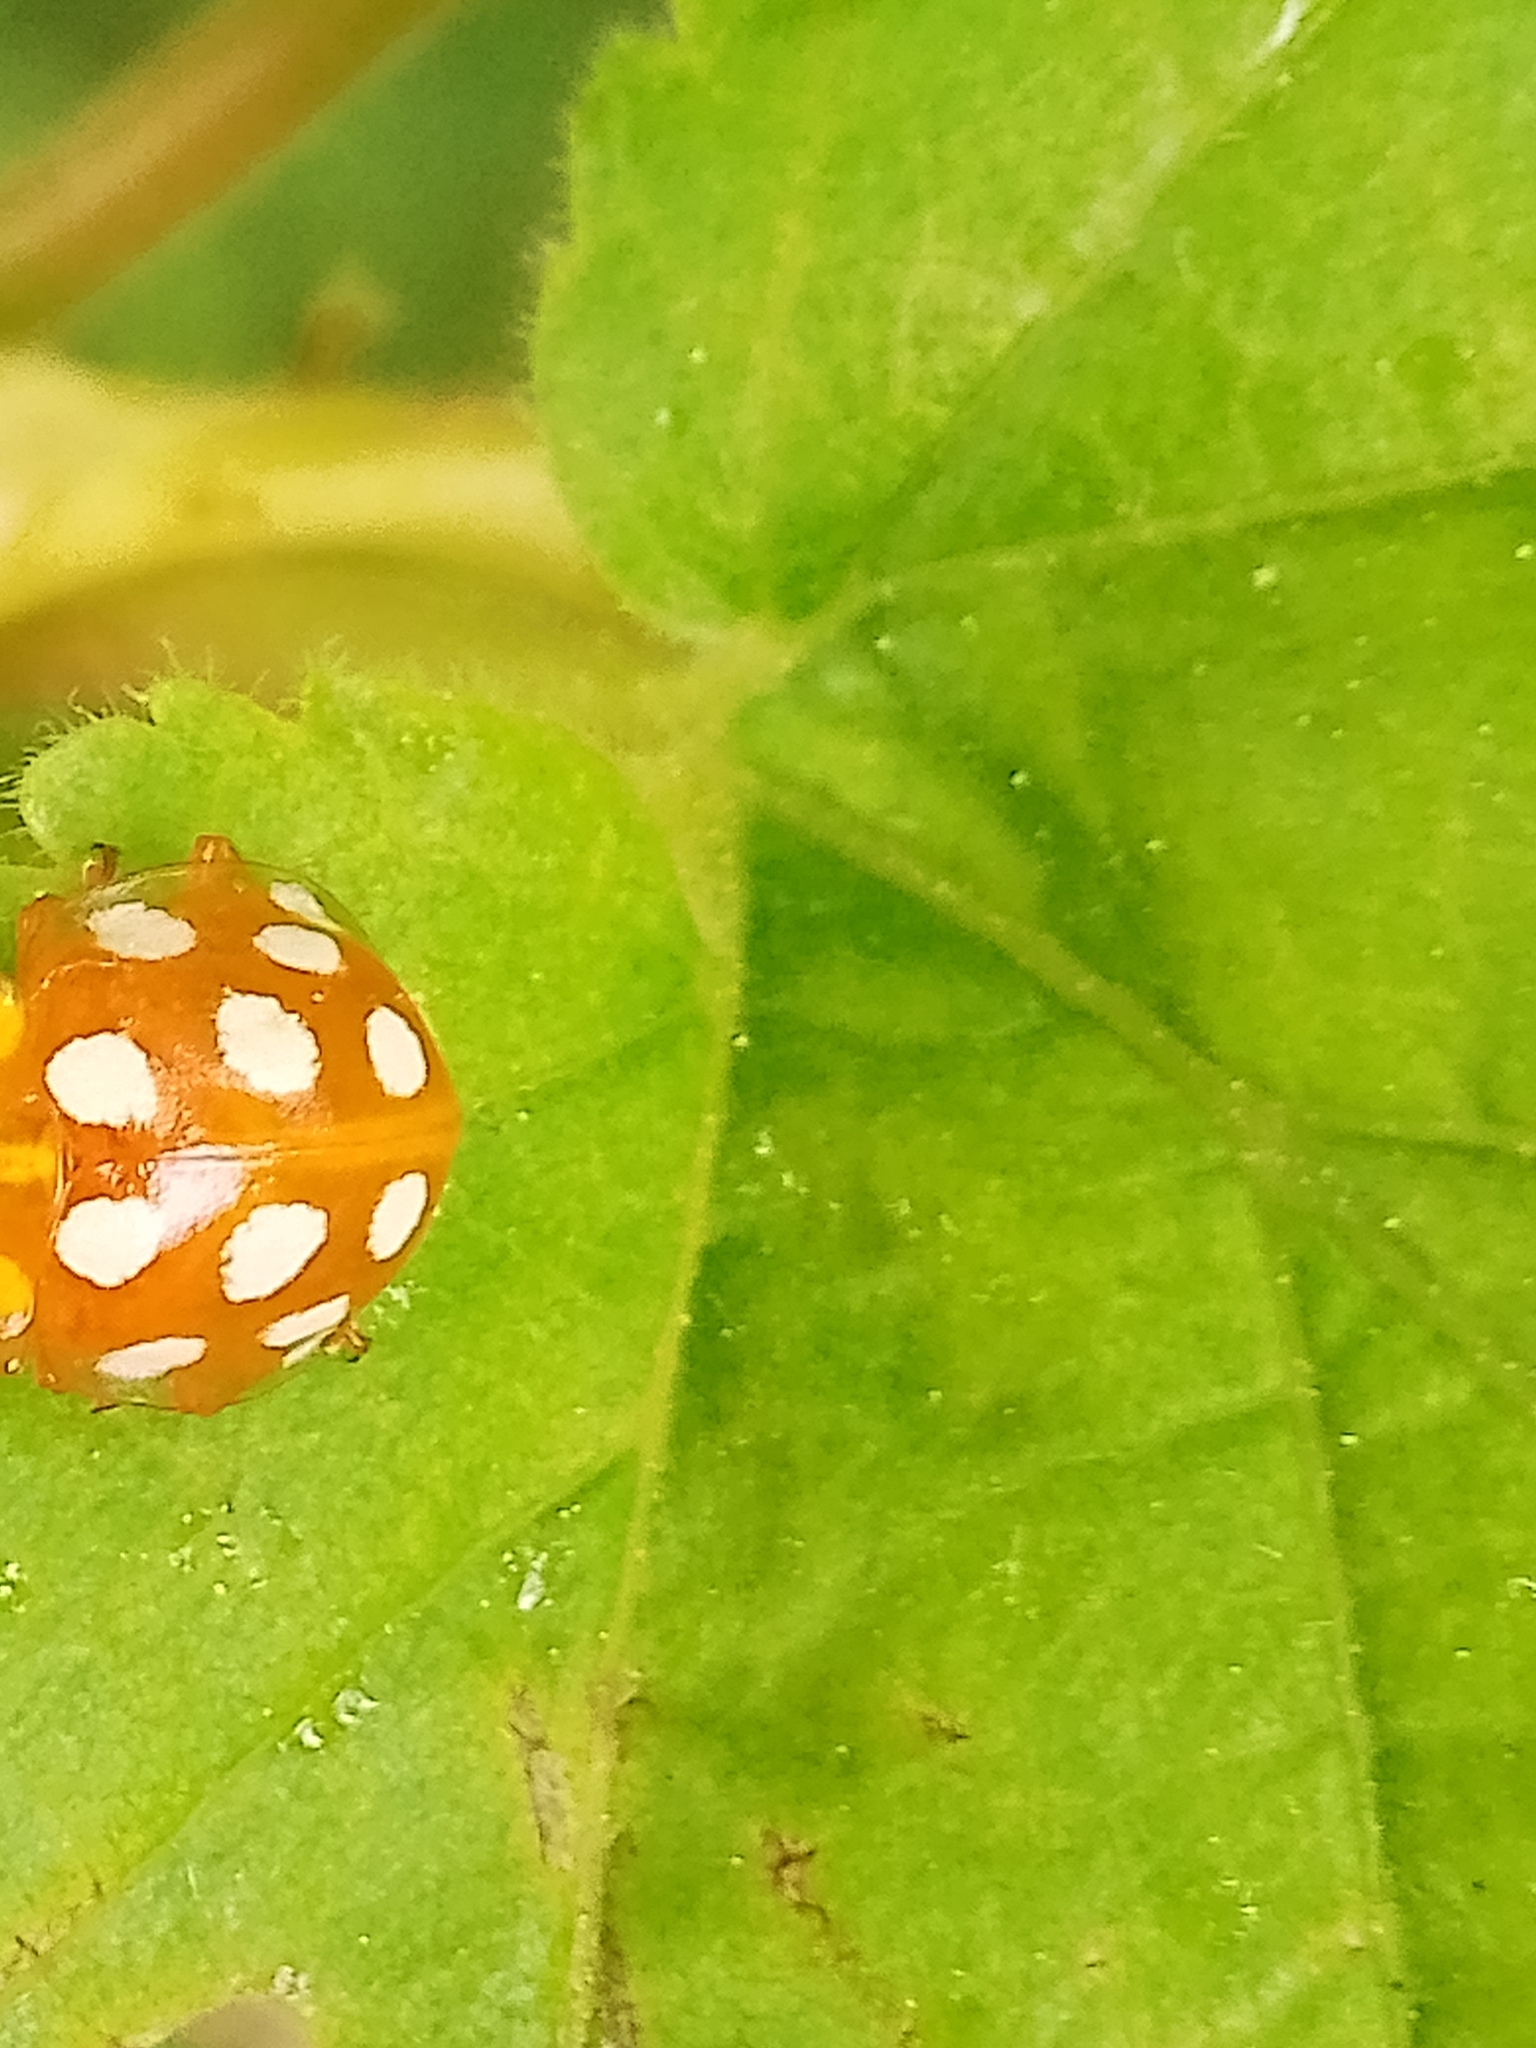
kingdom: Animalia
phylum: Arthropoda
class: Insecta
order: Coleoptera
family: Coccinellidae
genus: Halyzia
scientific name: Halyzia sedecimguttata
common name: Orange ladybird
